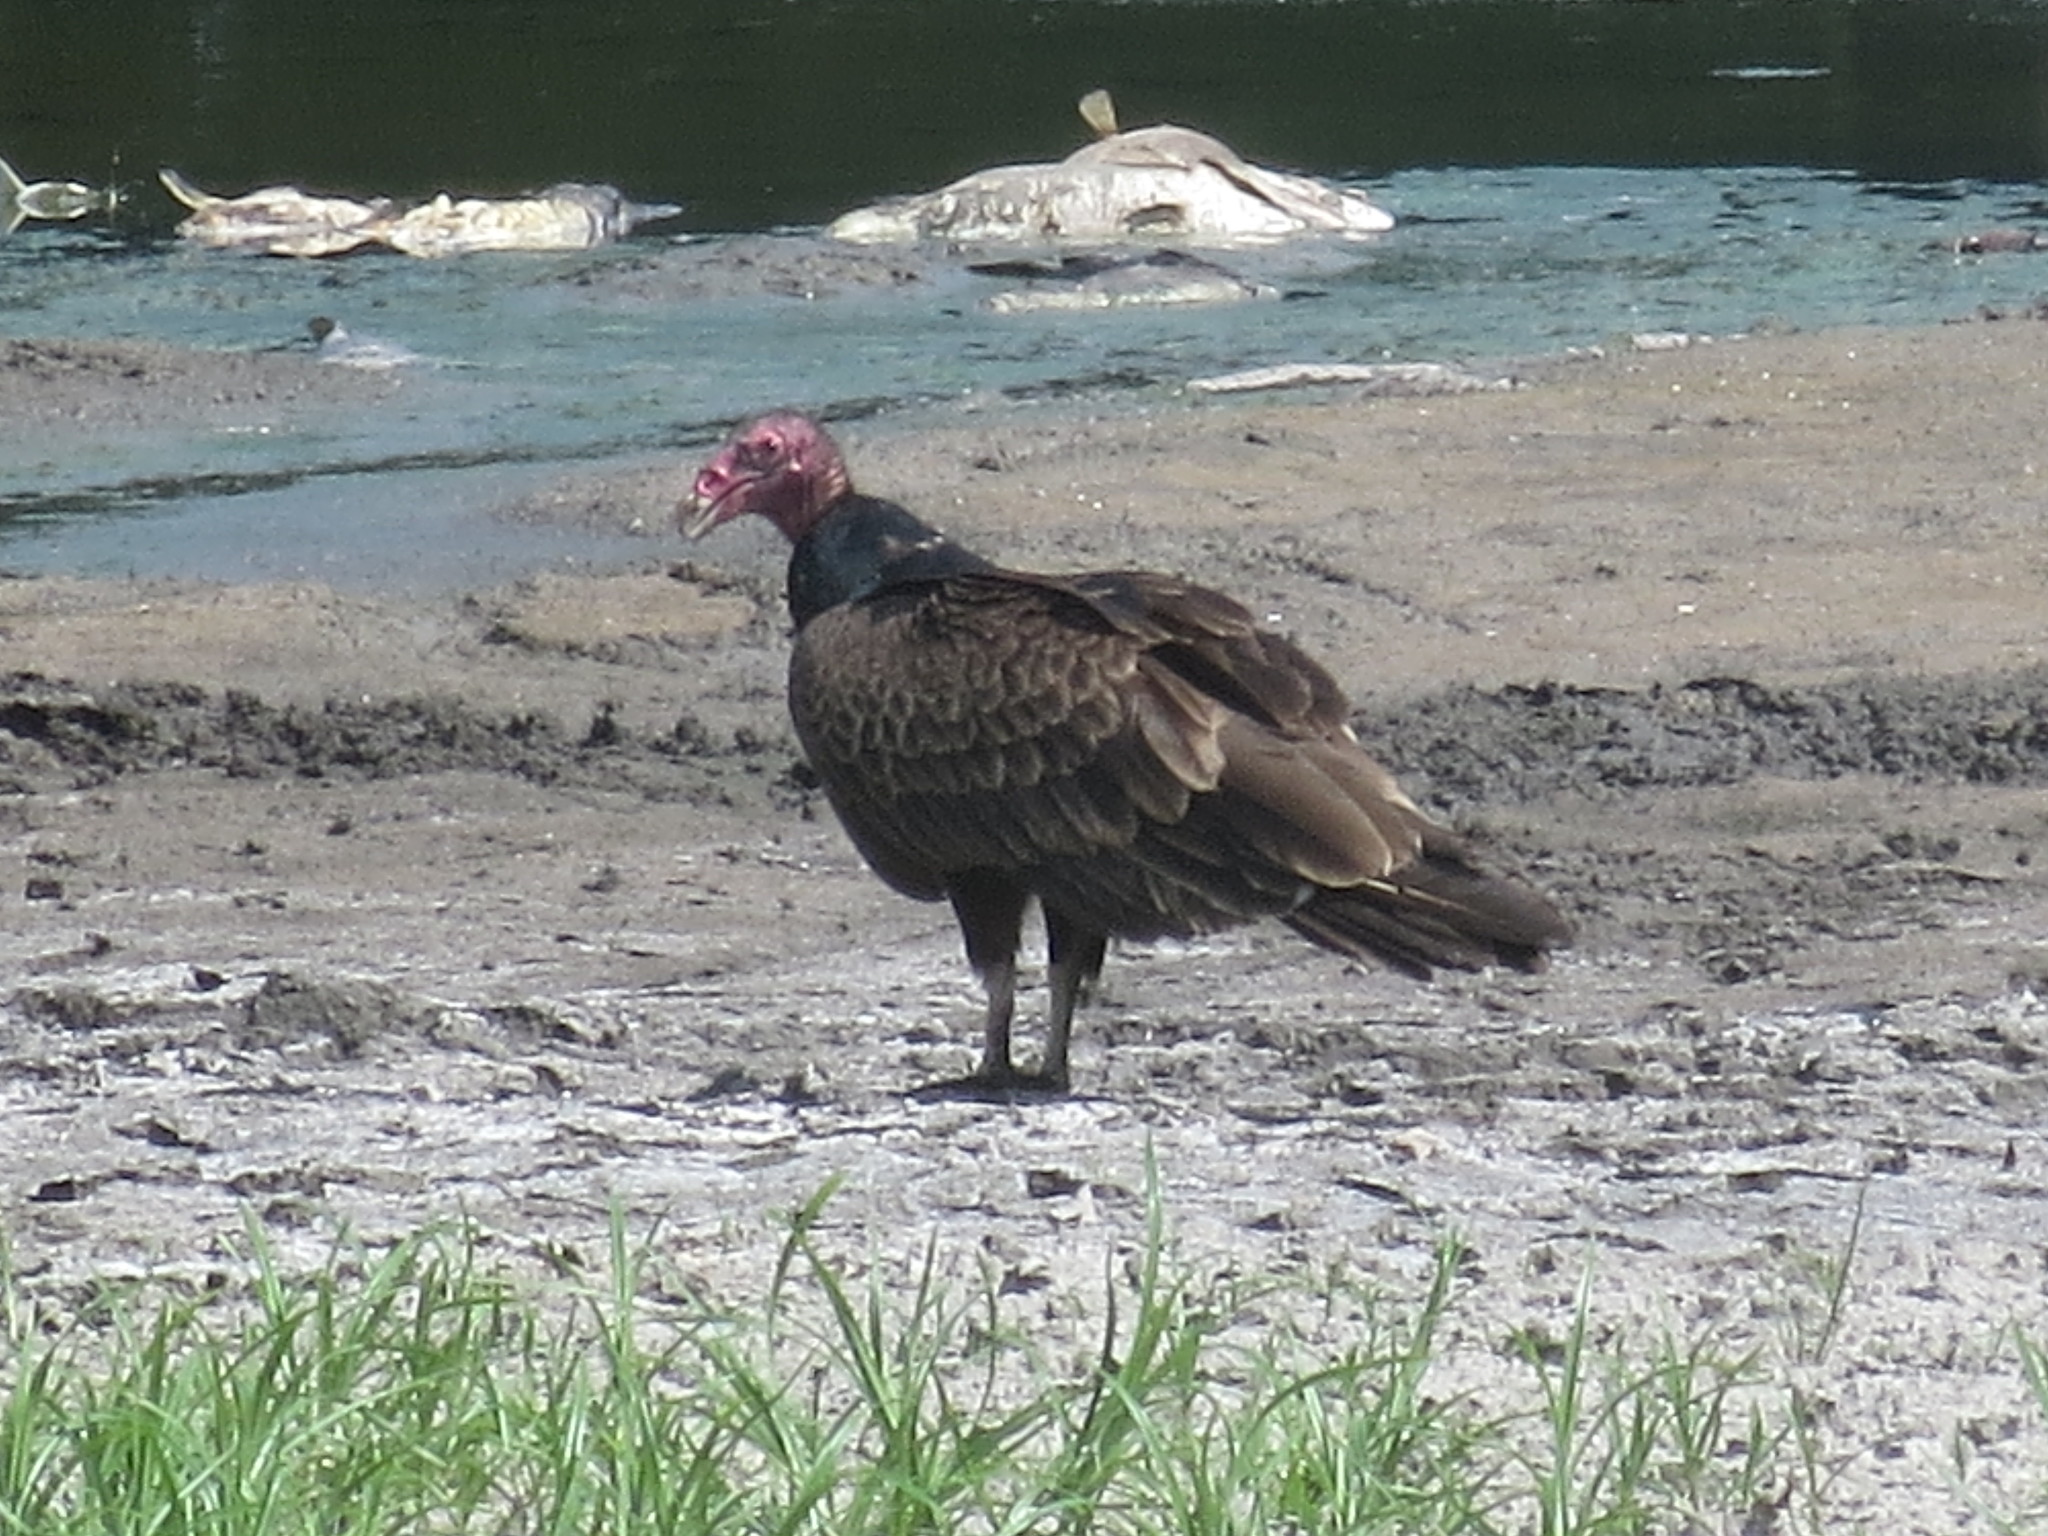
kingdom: Animalia
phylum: Chordata
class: Aves
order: Accipitriformes
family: Cathartidae
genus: Cathartes
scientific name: Cathartes aura
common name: Turkey vulture
